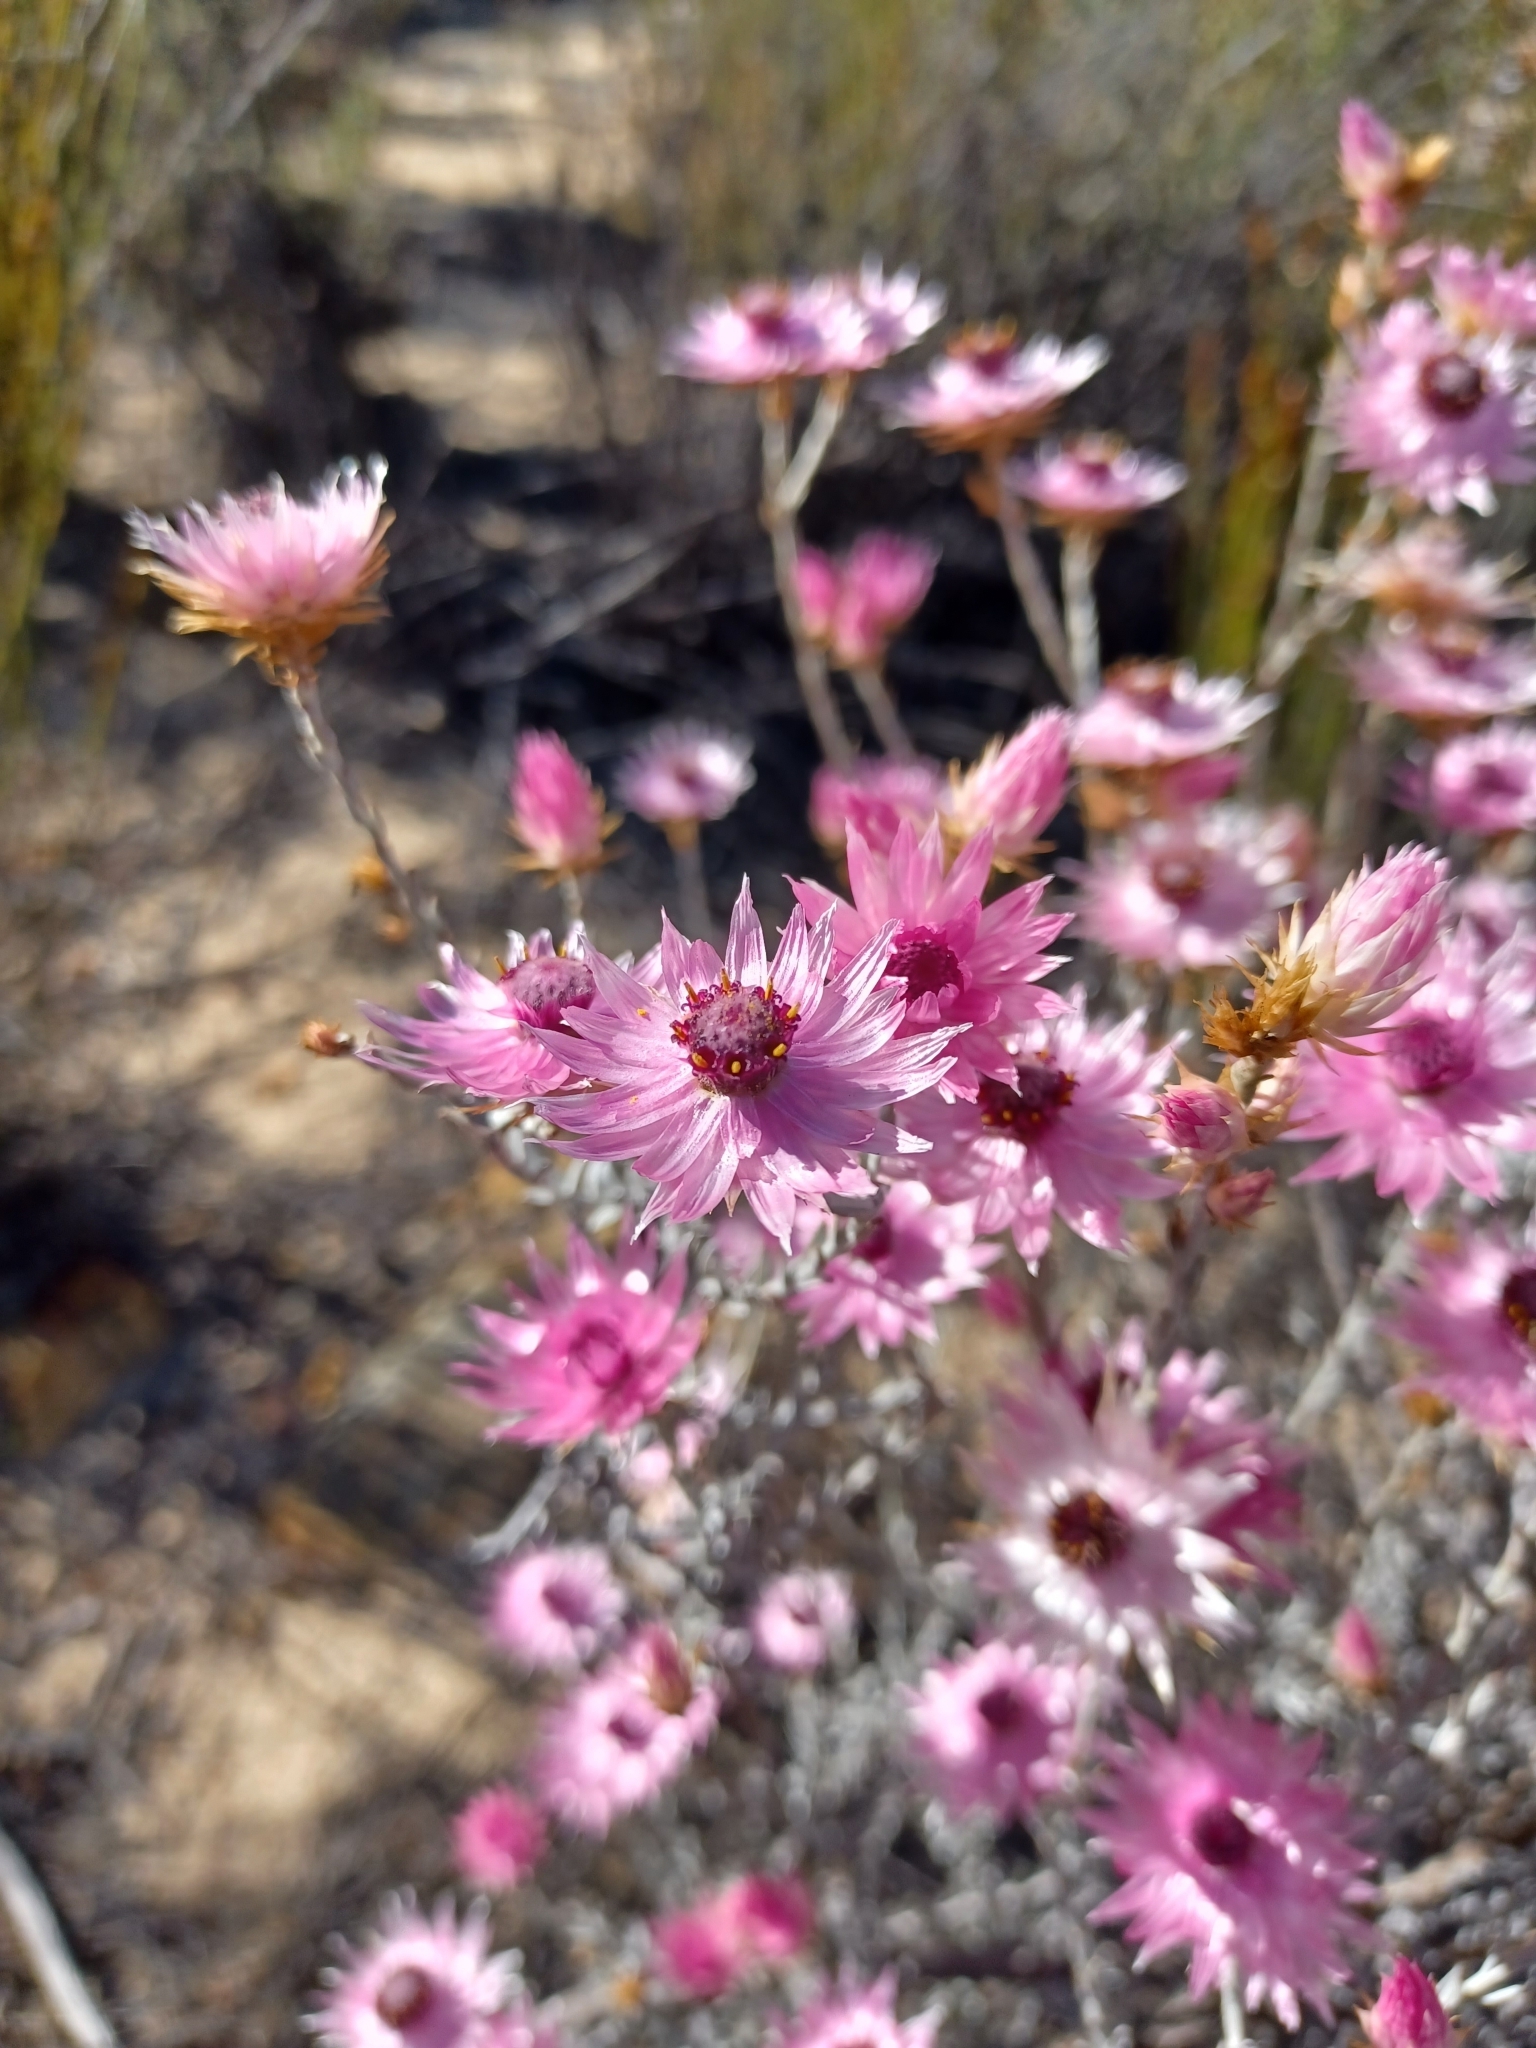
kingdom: Plantae
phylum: Tracheophyta
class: Magnoliopsida
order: Asterales
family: Asteraceae
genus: Syncarpha
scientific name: Syncarpha canescens
